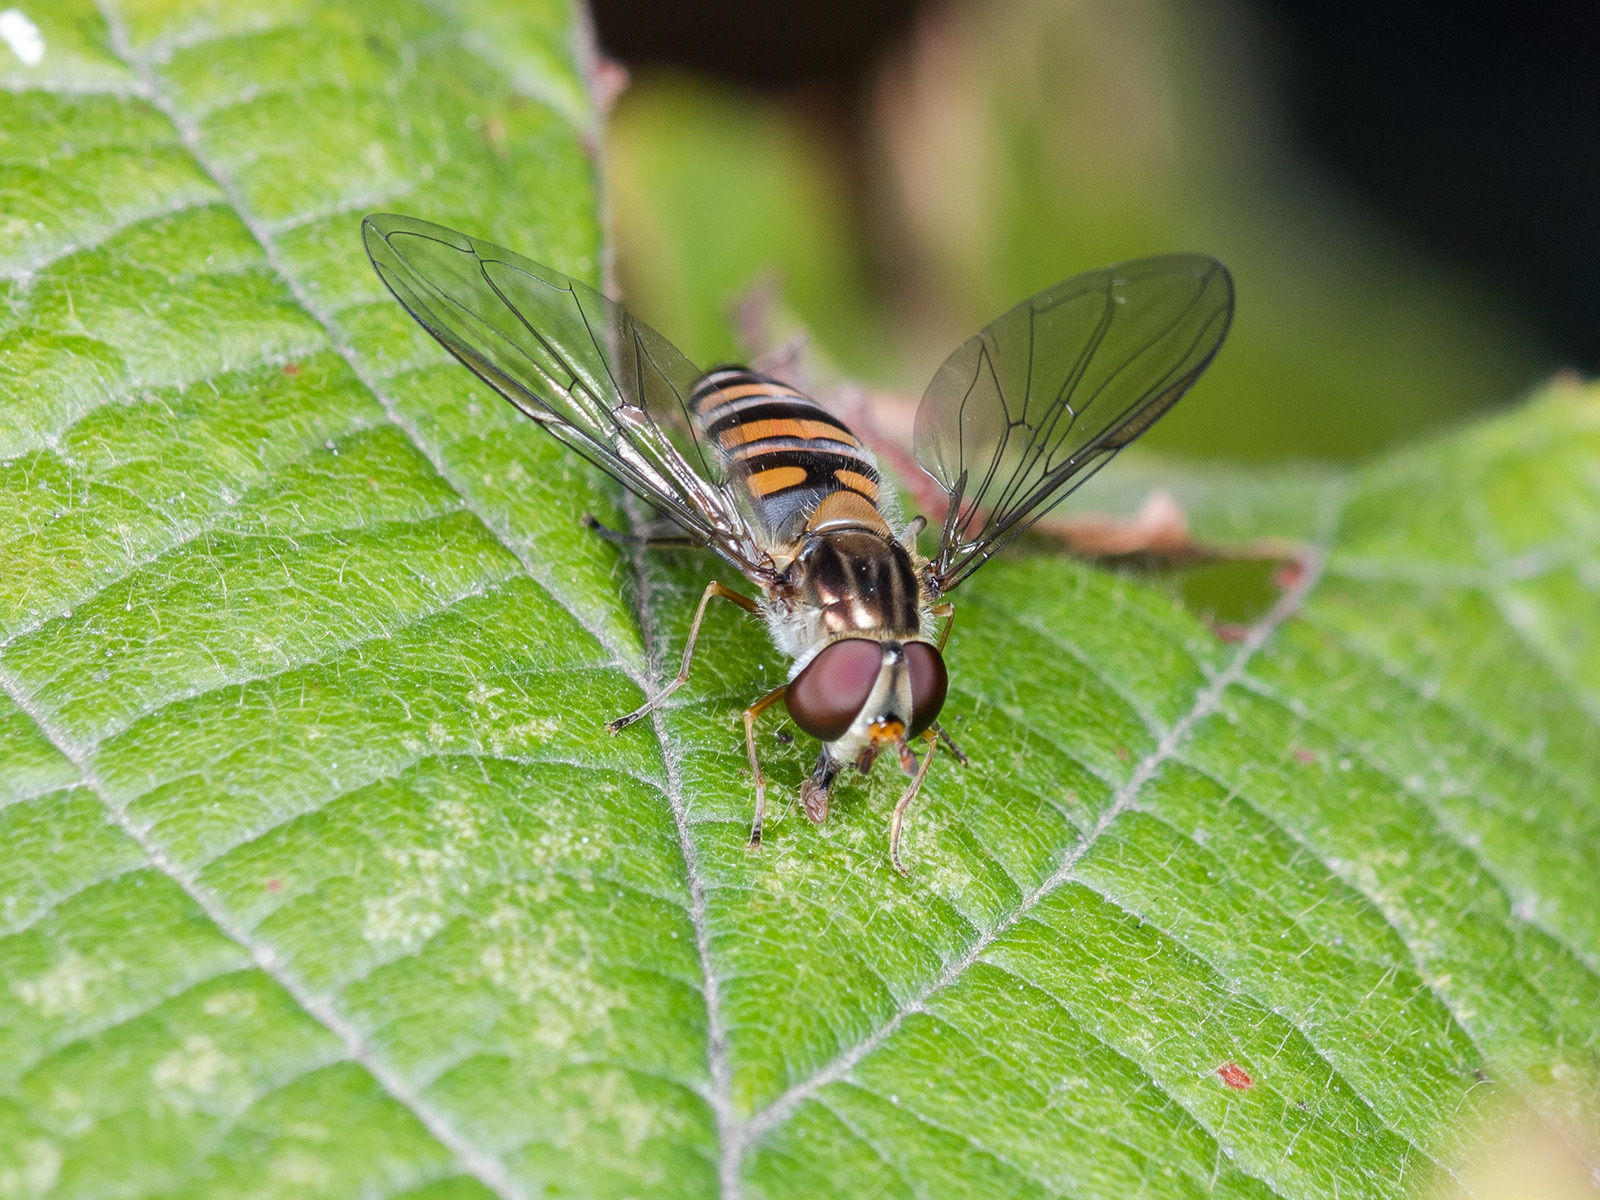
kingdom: Animalia
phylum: Arthropoda
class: Insecta
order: Diptera
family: Syrphidae
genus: Episyrphus
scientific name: Episyrphus balteatus
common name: Marmalade hoverfly
